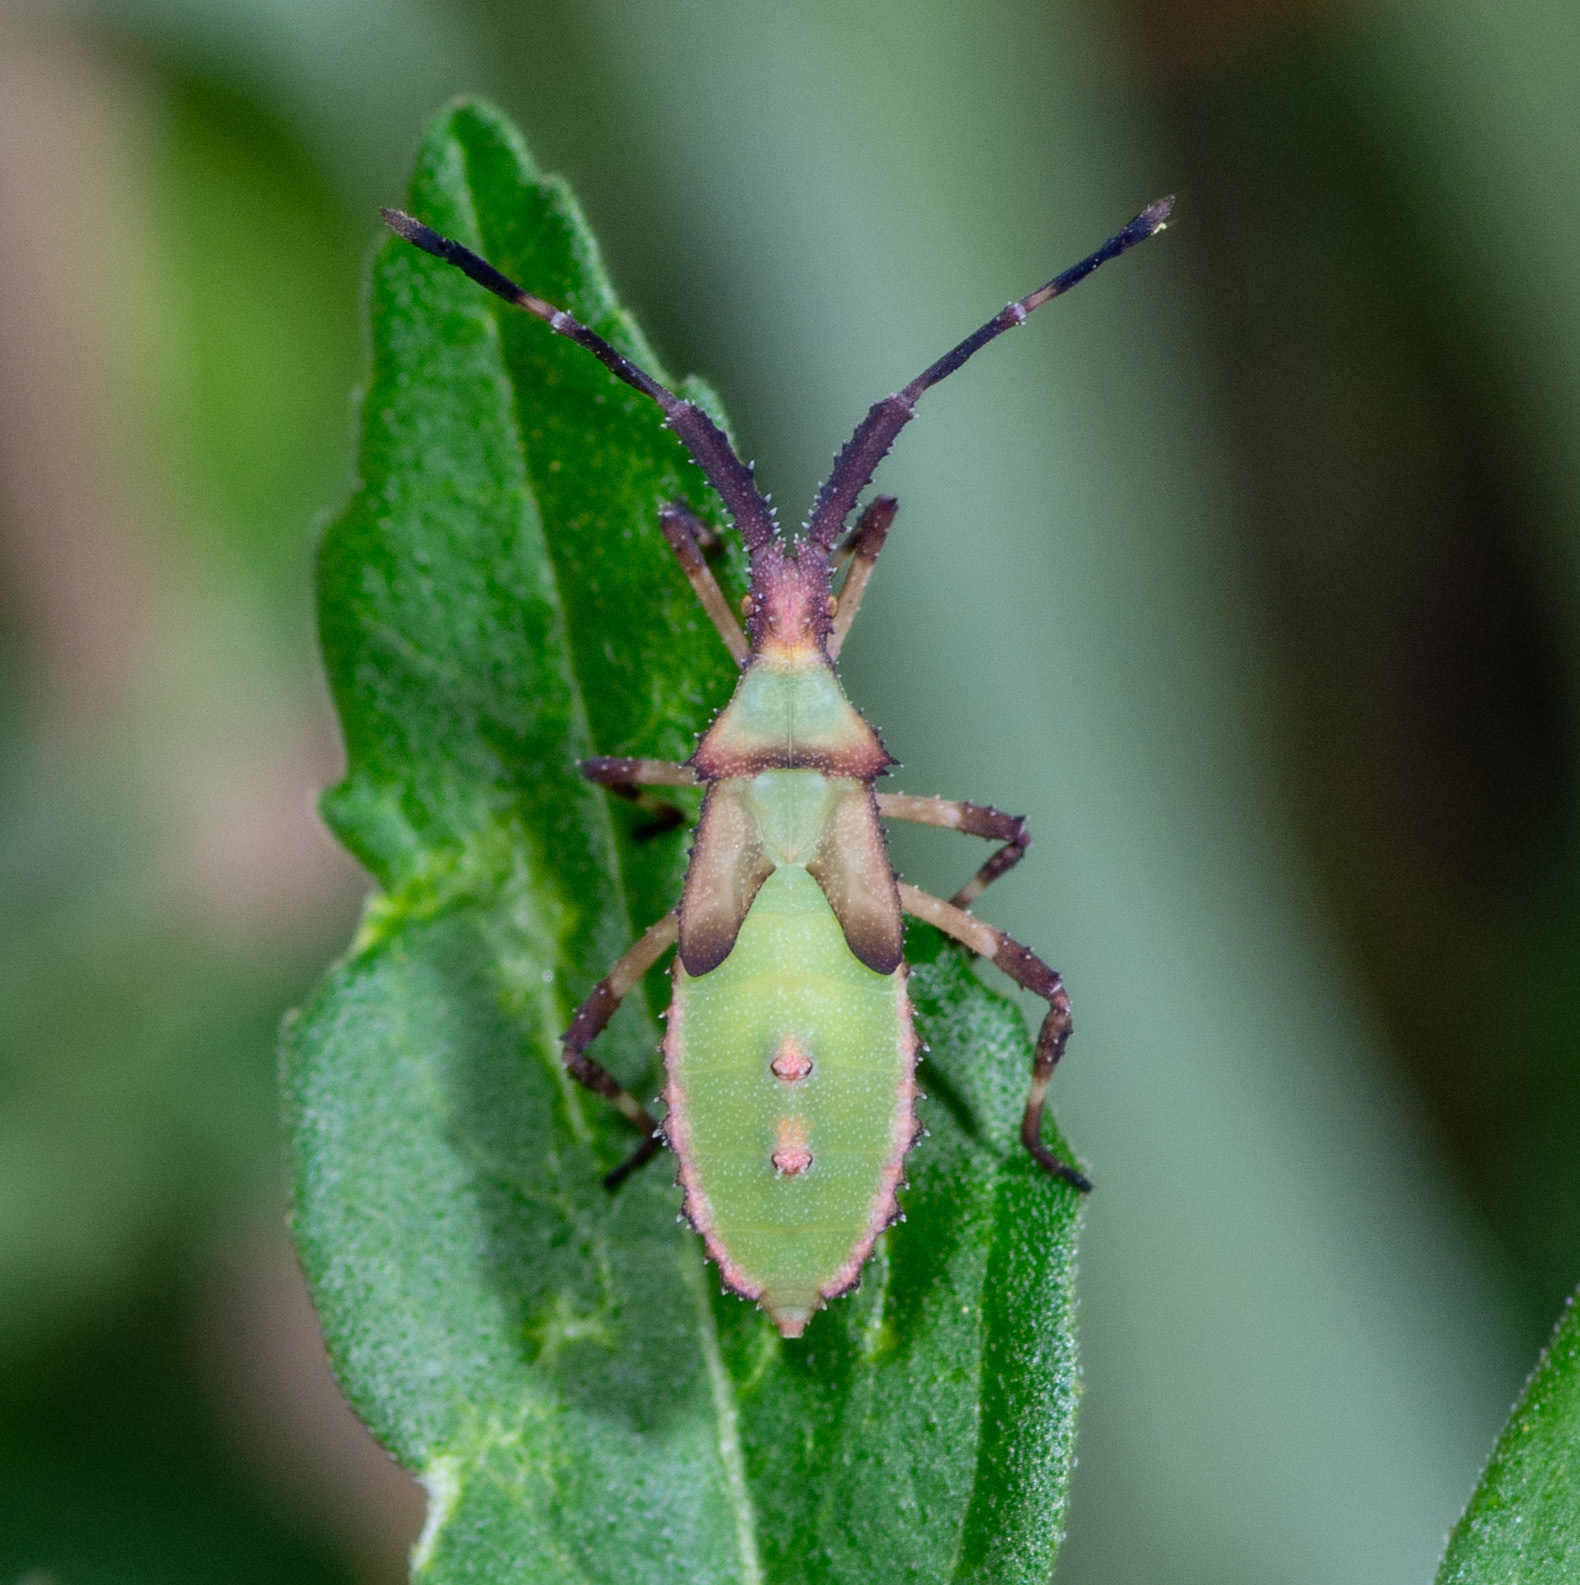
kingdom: Animalia
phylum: Arthropoda
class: Insecta
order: Hemiptera
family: Coreidae
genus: Chariesterus
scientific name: Chariesterus antennator
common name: Flat horned coreid
